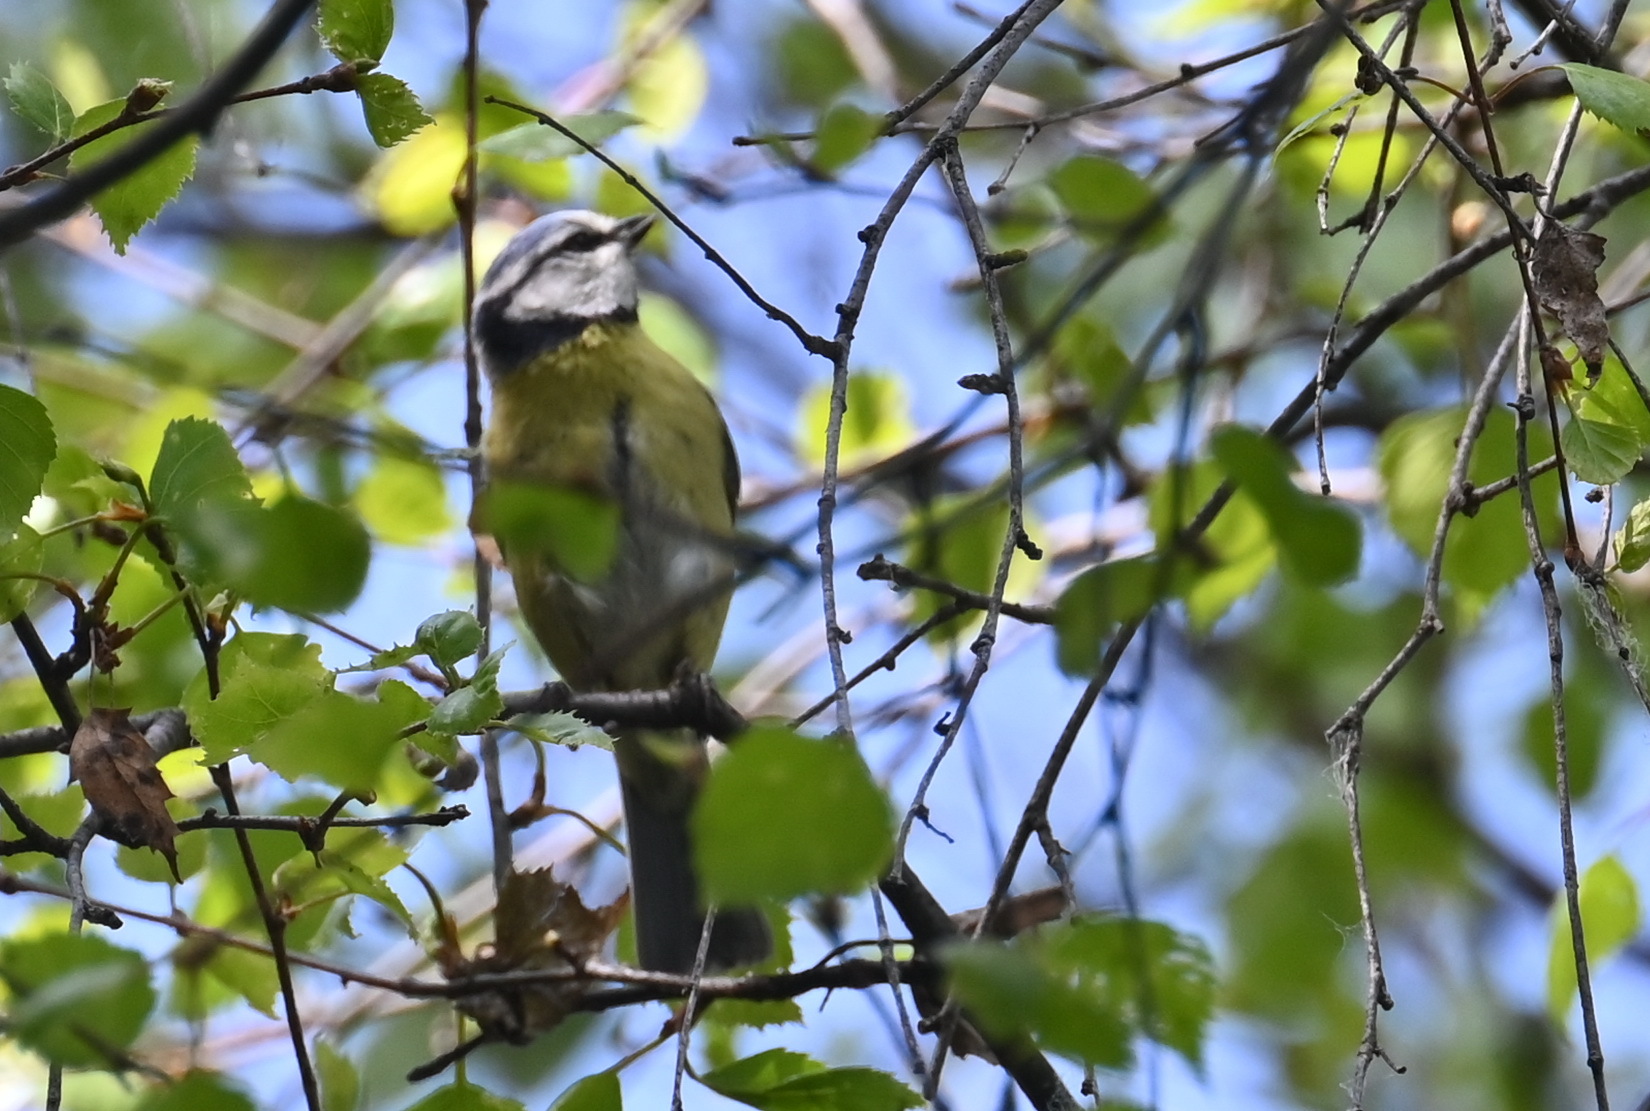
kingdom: Animalia
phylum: Chordata
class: Aves
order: Passeriformes
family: Paridae
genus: Cyanistes
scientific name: Cyanistes caeruleus
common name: Eurasian blue tit
